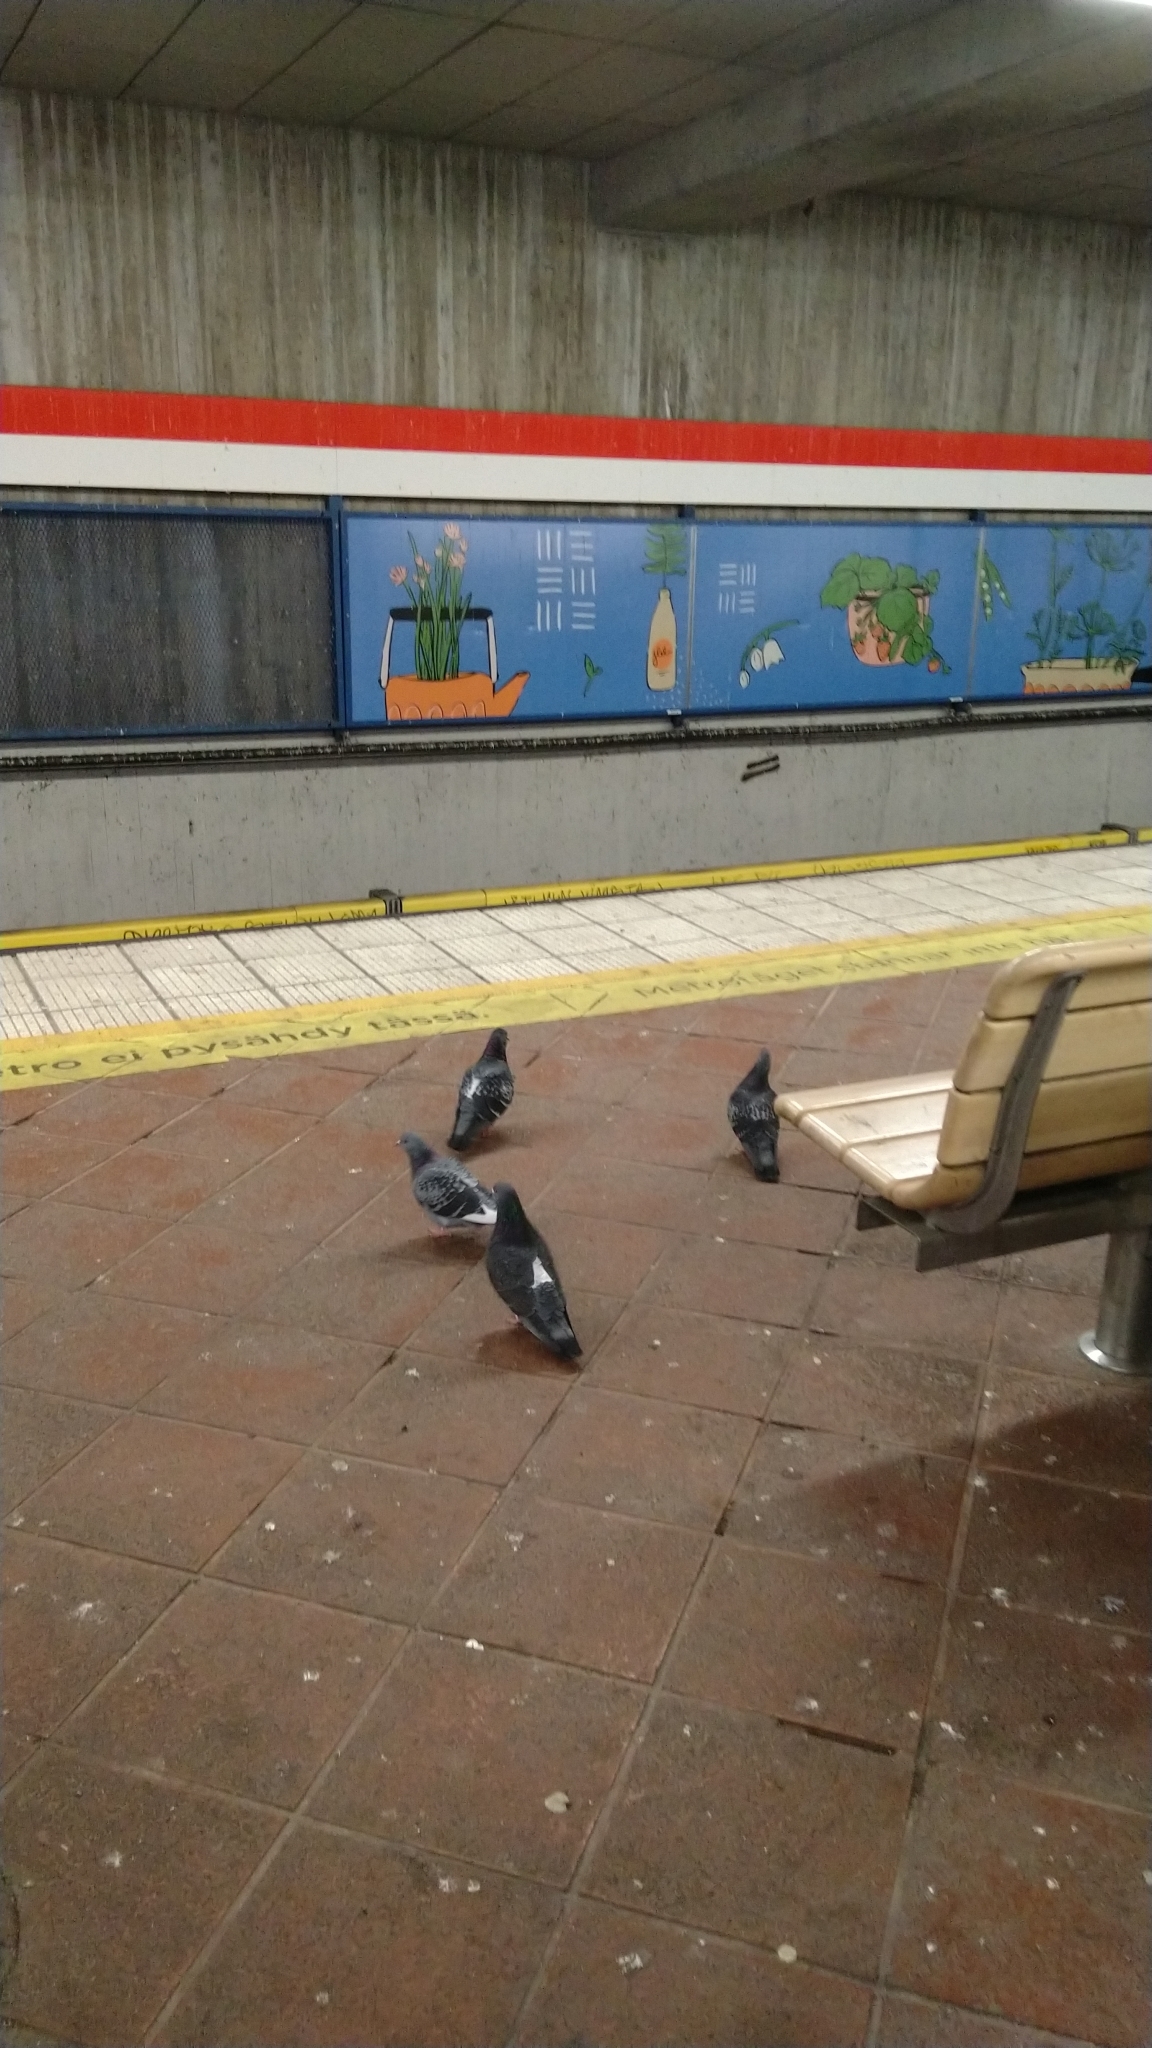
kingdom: Animalia
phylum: Chordata
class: Aves
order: Columbiformes
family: Columbidae
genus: Columba
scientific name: Columba livia
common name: Rock pigeon
